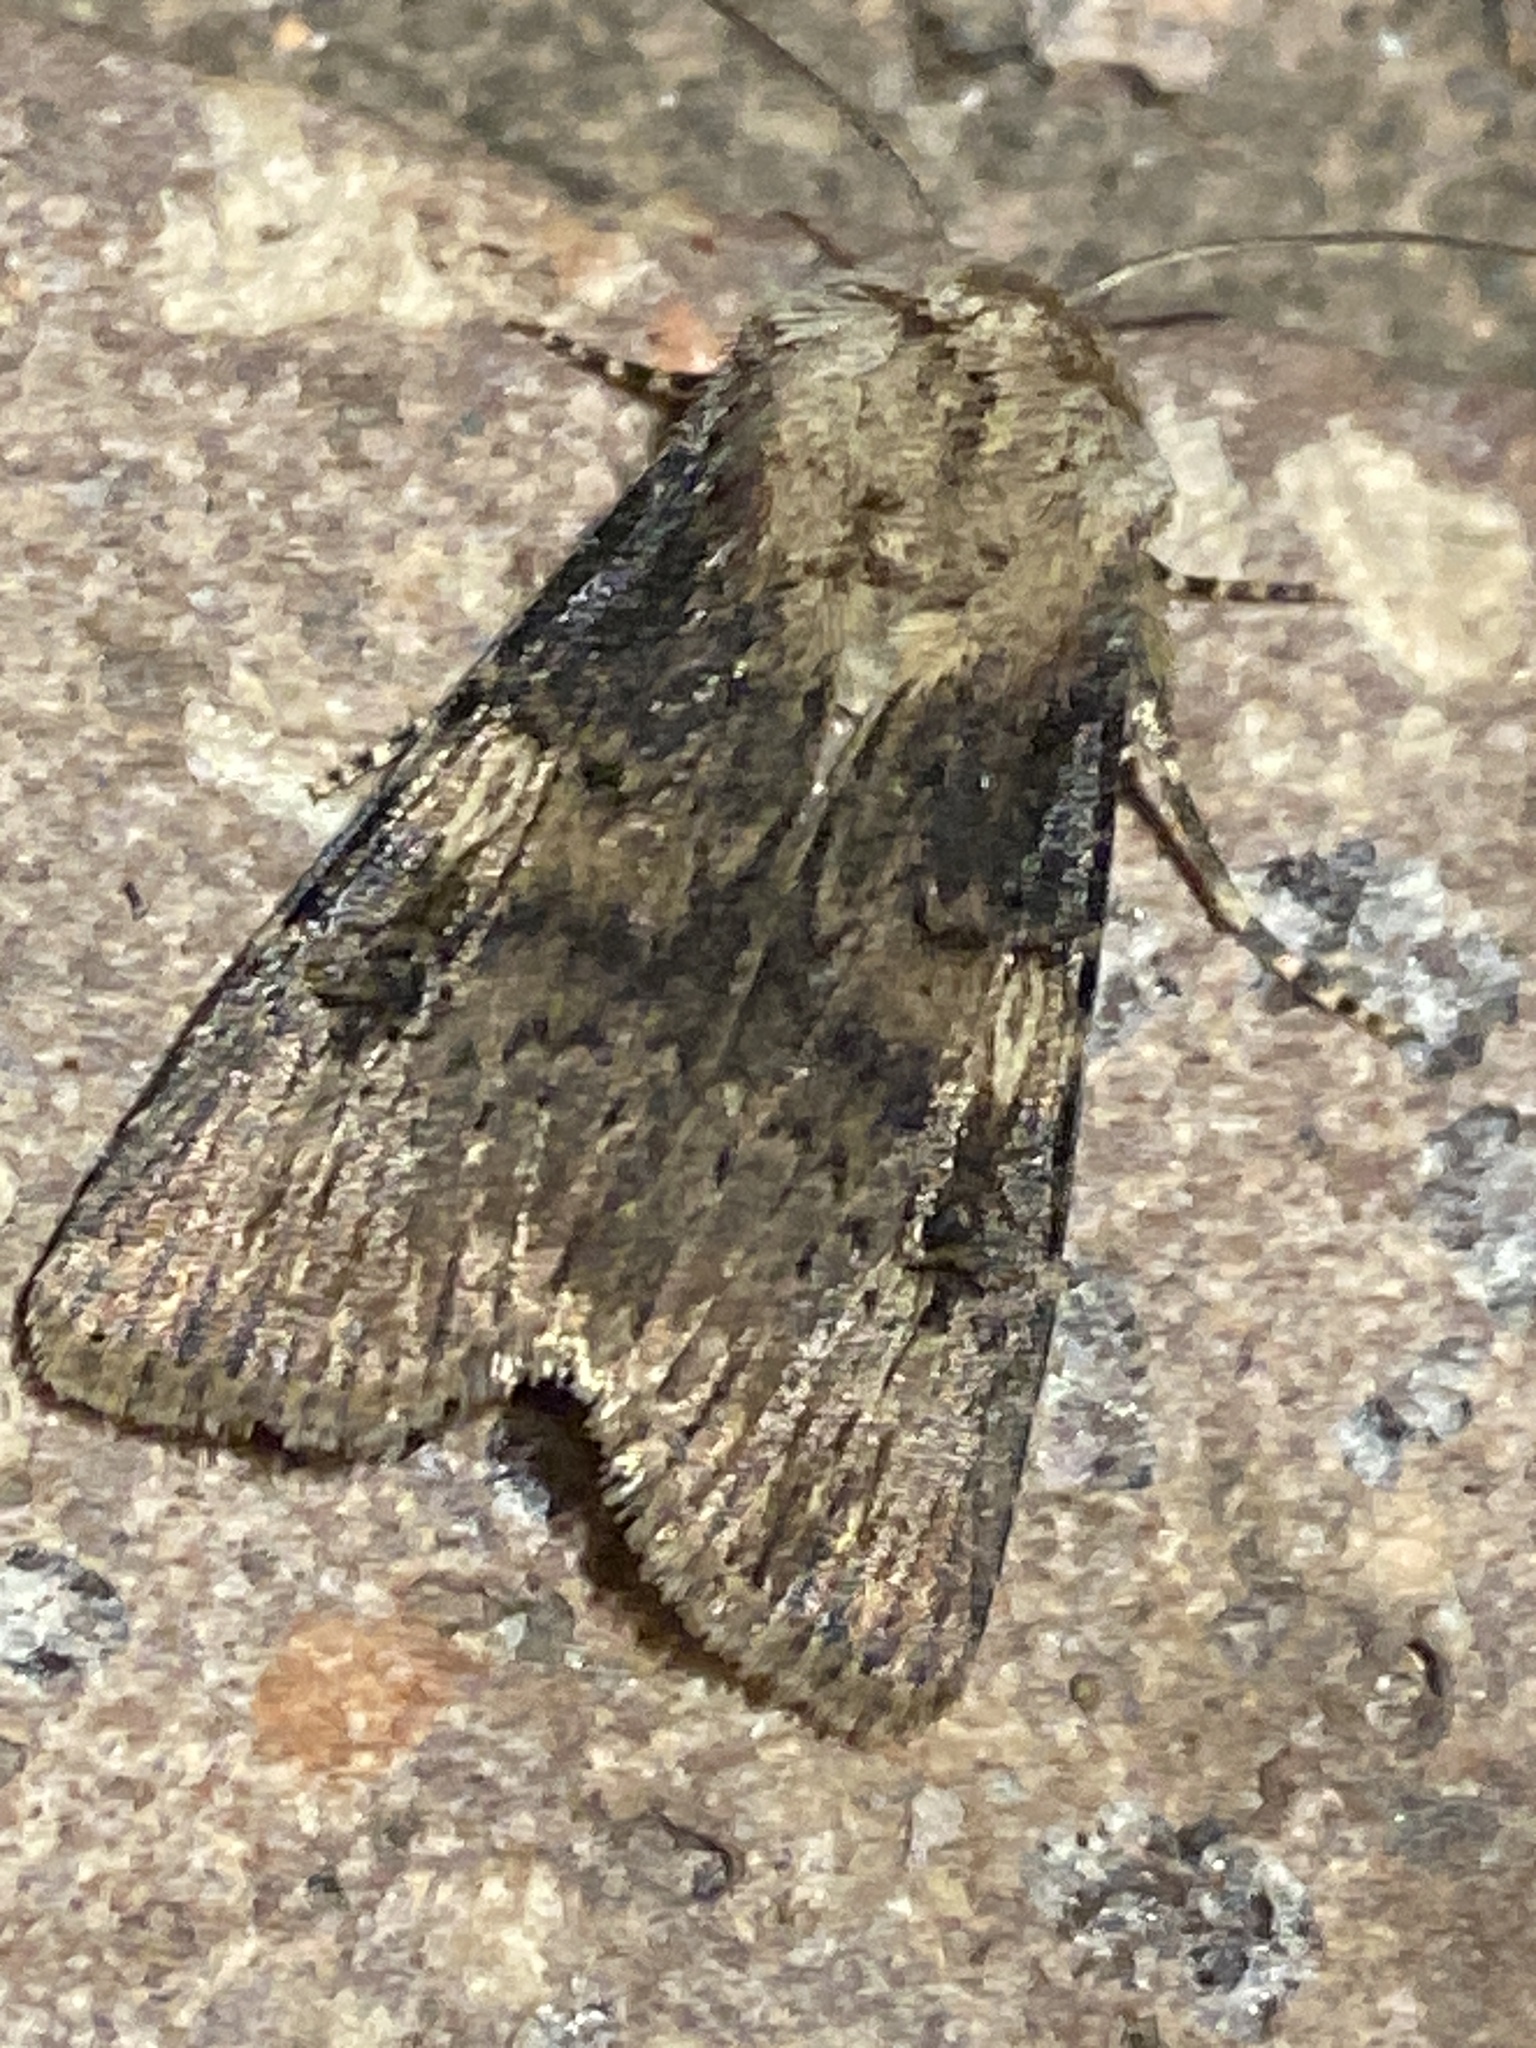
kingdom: Animalia
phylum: Arthropoda
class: Insecta
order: Lepidoptera
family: Noctuidae
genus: Agrotis
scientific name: Agrotis puta
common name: Shuttle-shaped dart
